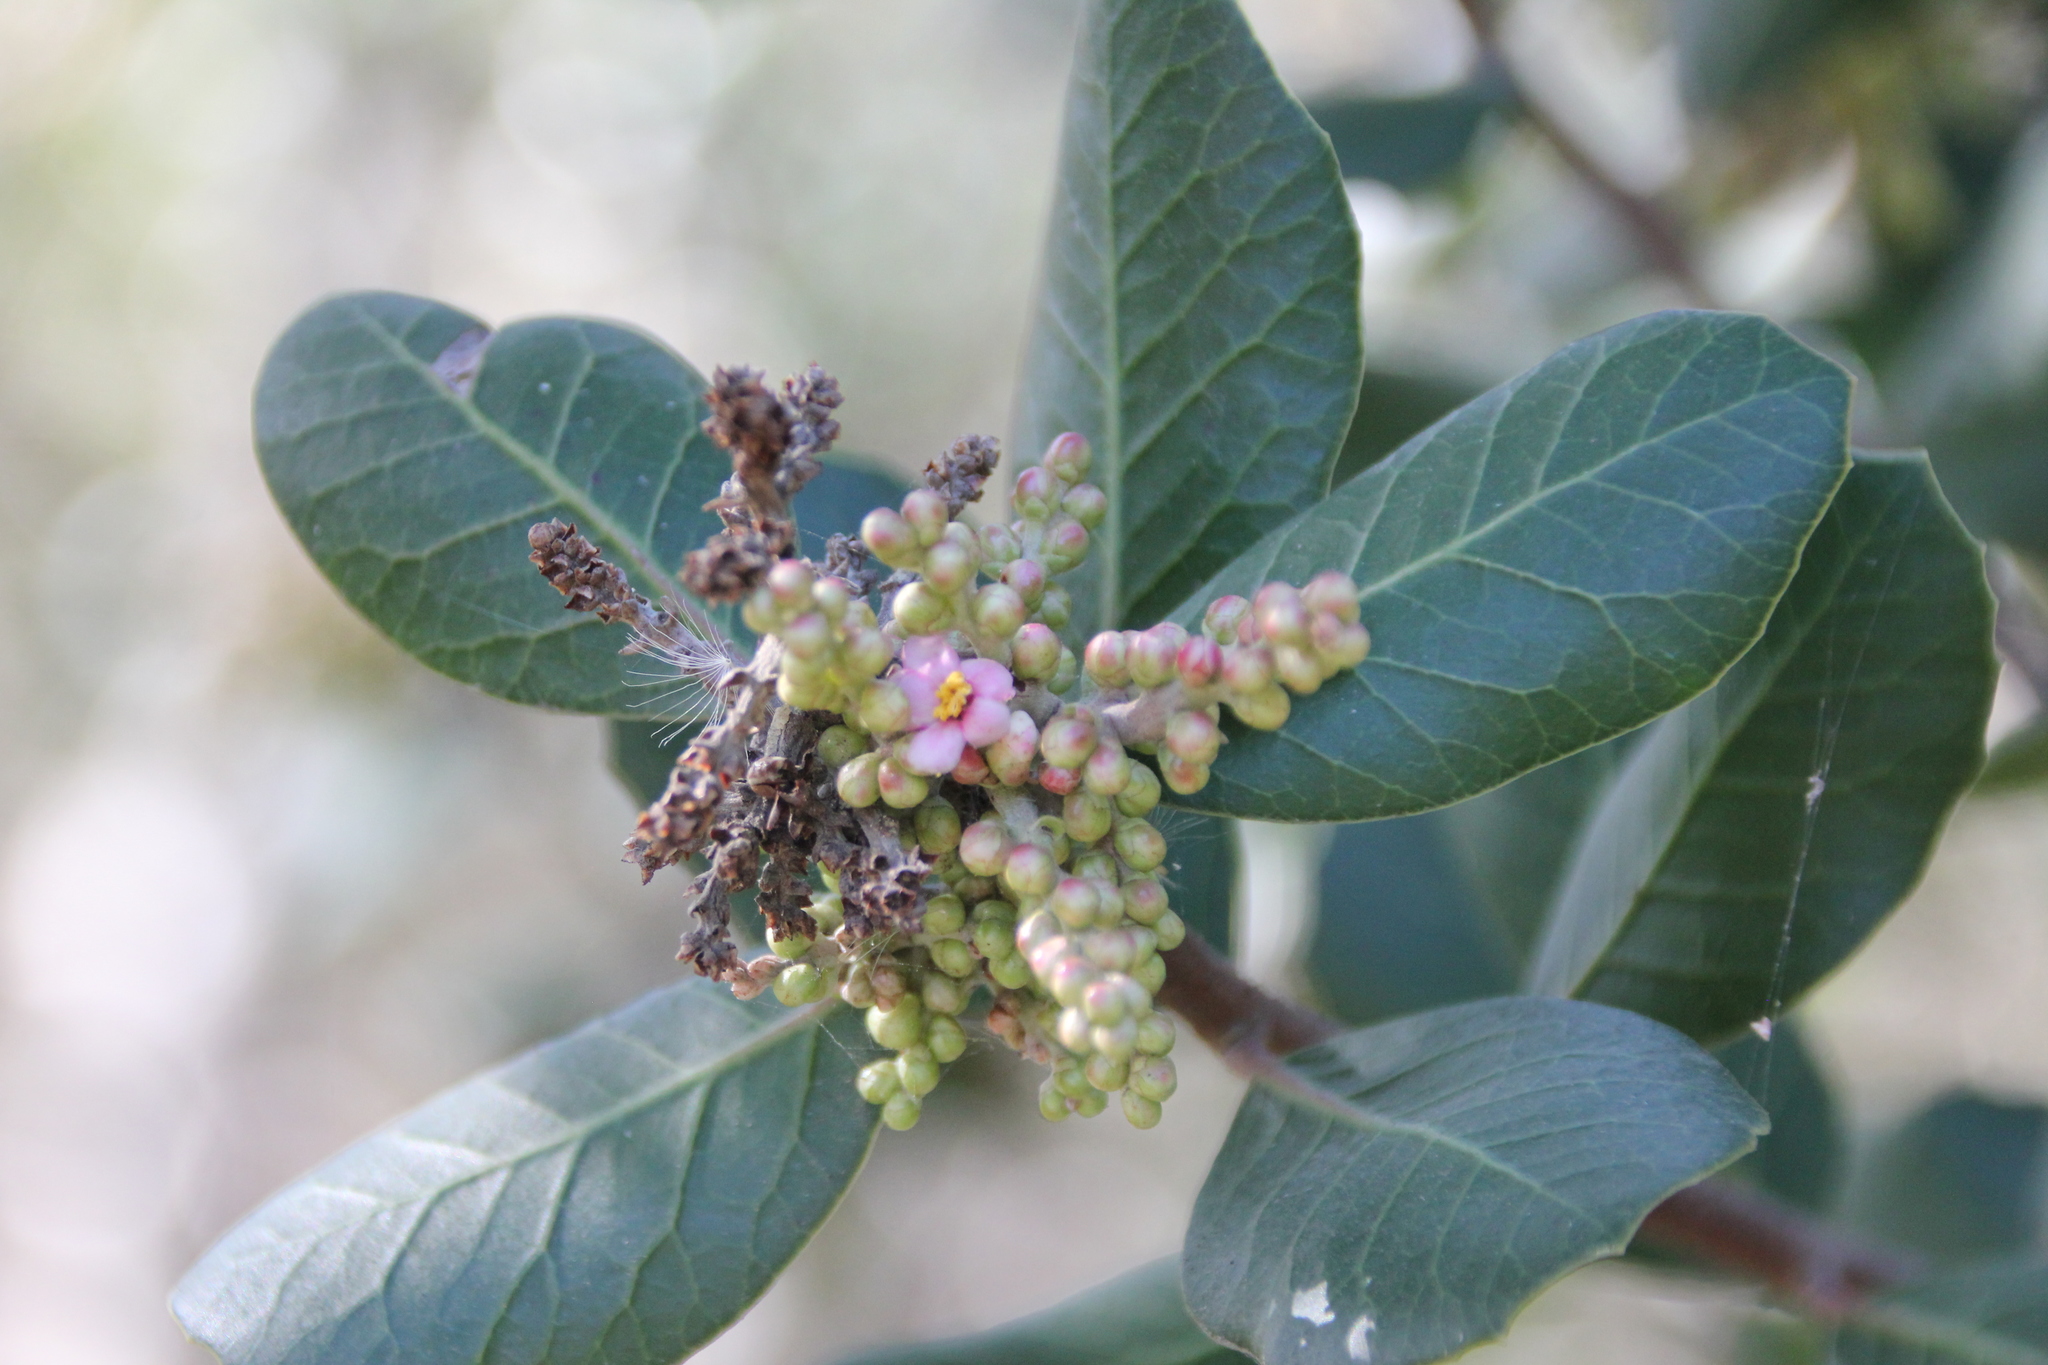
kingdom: Plantae
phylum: Tracheophyta
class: Magnoliopsida
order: Sapindales
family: Anacardiaceae
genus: Rhus
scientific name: Rhus integrifolia
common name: Lemonade sumac
